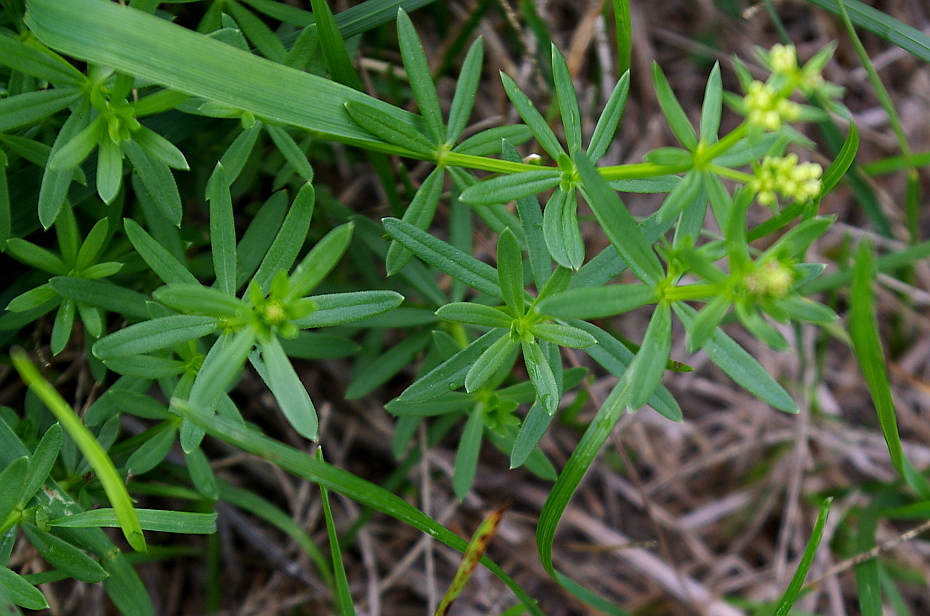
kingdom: Plantae
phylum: Tracheophyta
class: Magnoliopsida
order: Gentianales
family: Rubiaceae
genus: Galium
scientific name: Galium mollugo
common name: Hedge bedstraw
